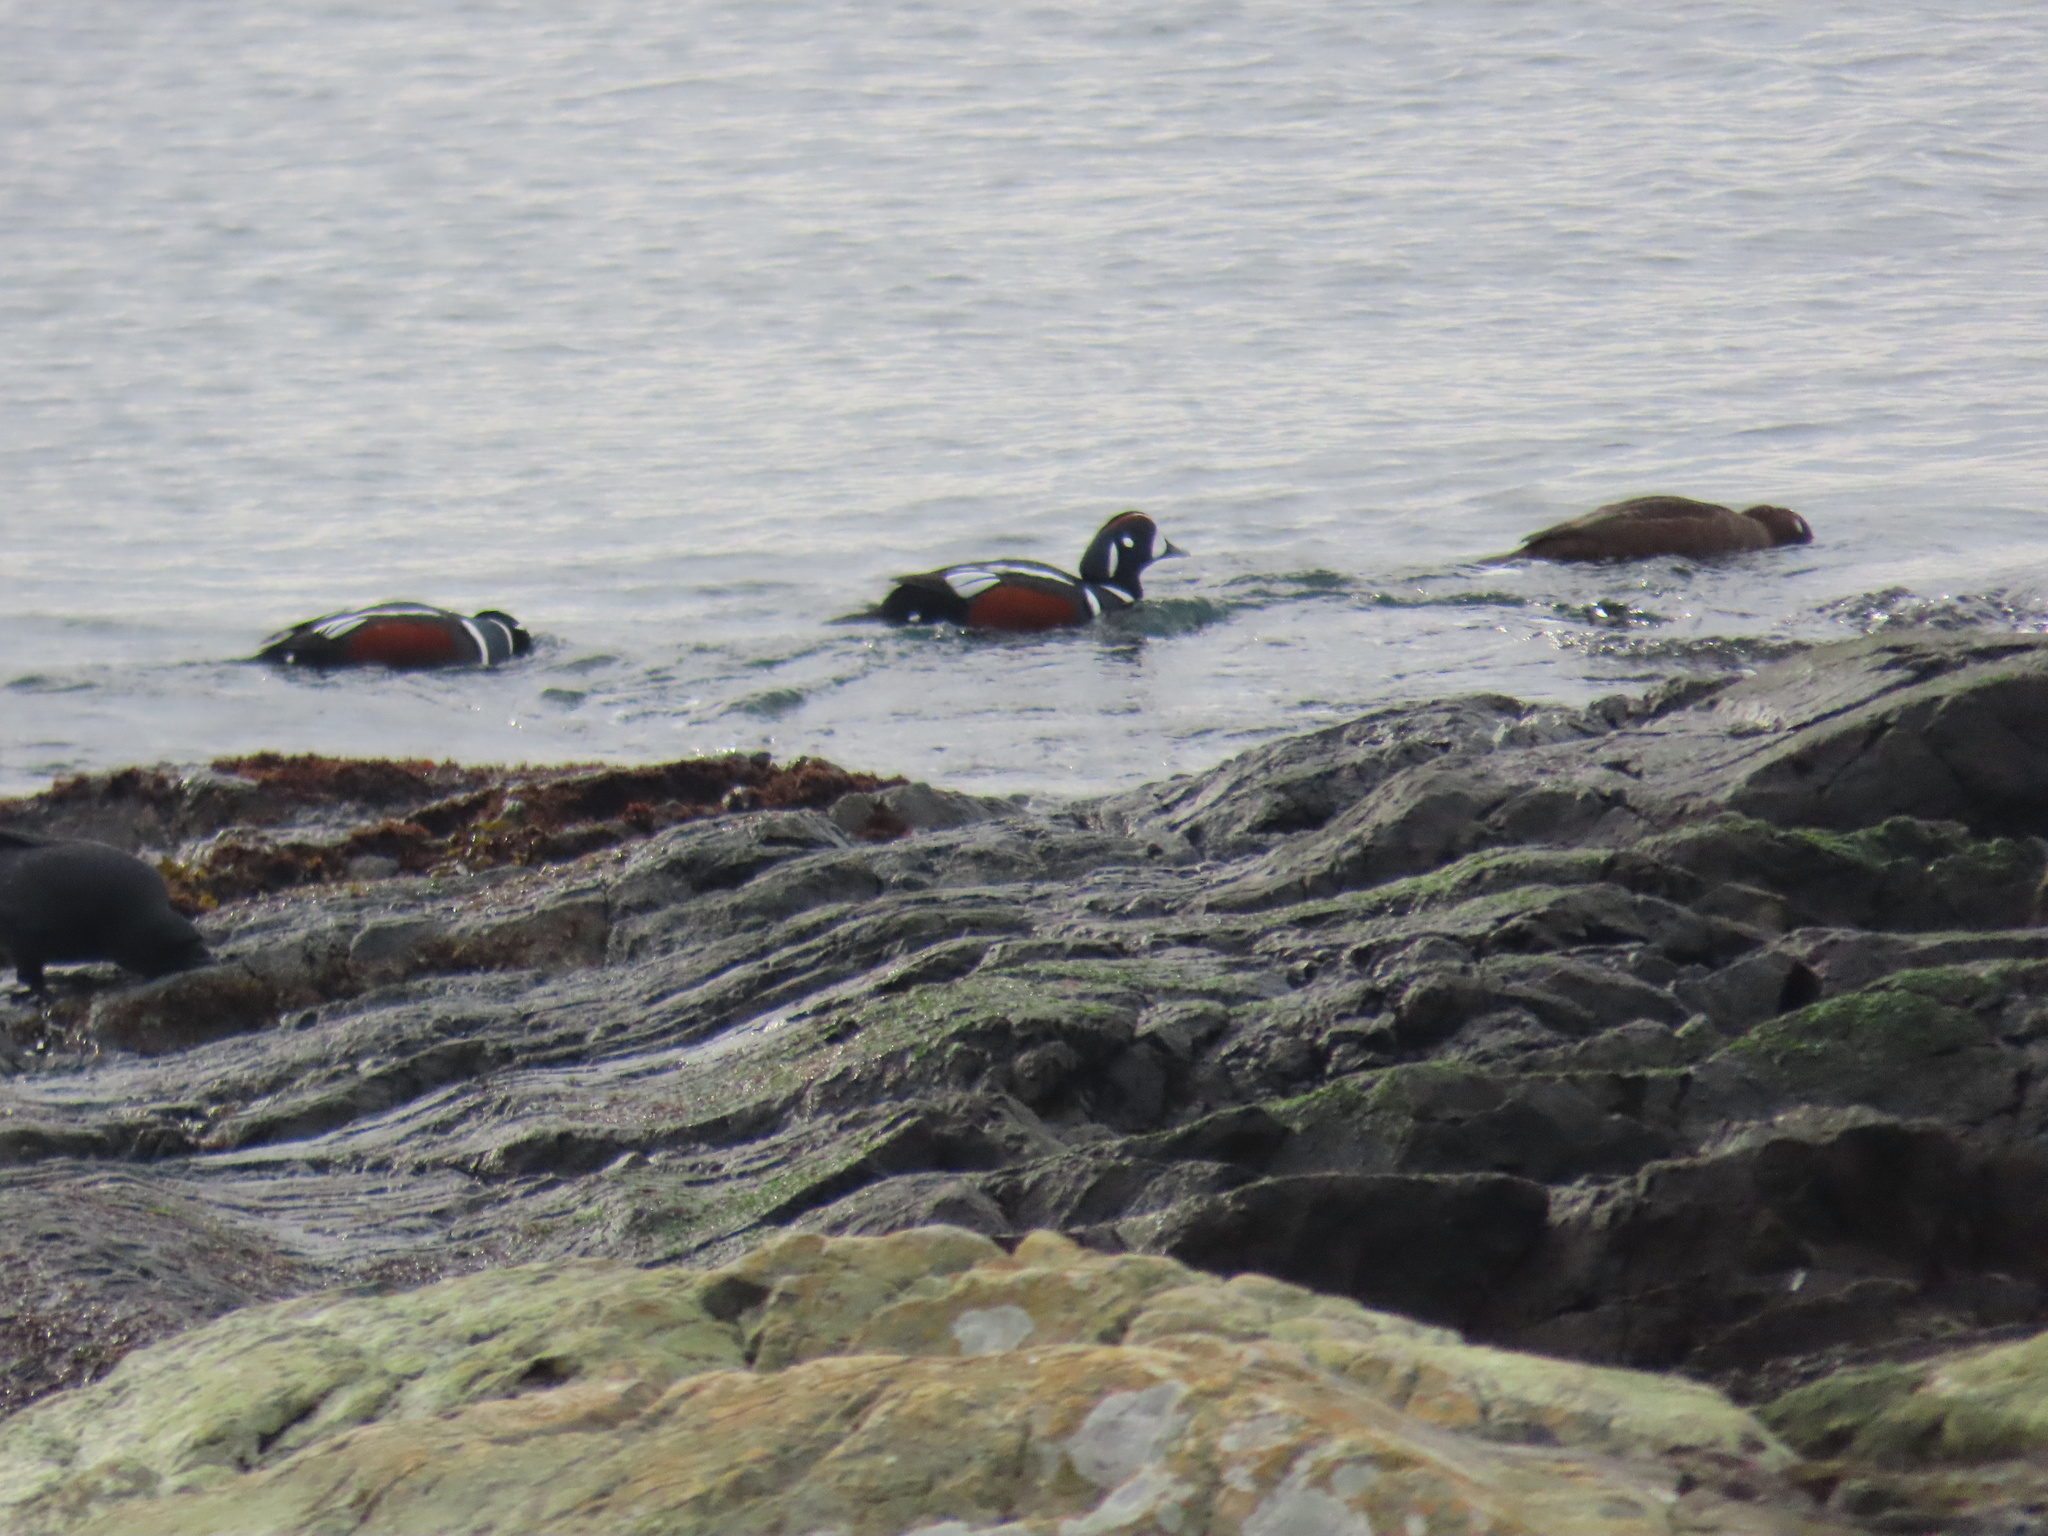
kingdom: Animalia
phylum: Chordata
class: Aves
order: Anseriformes
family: Anatidae
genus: Histrionicus
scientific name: Histrionicus histrionicus
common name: Harlequin duck
